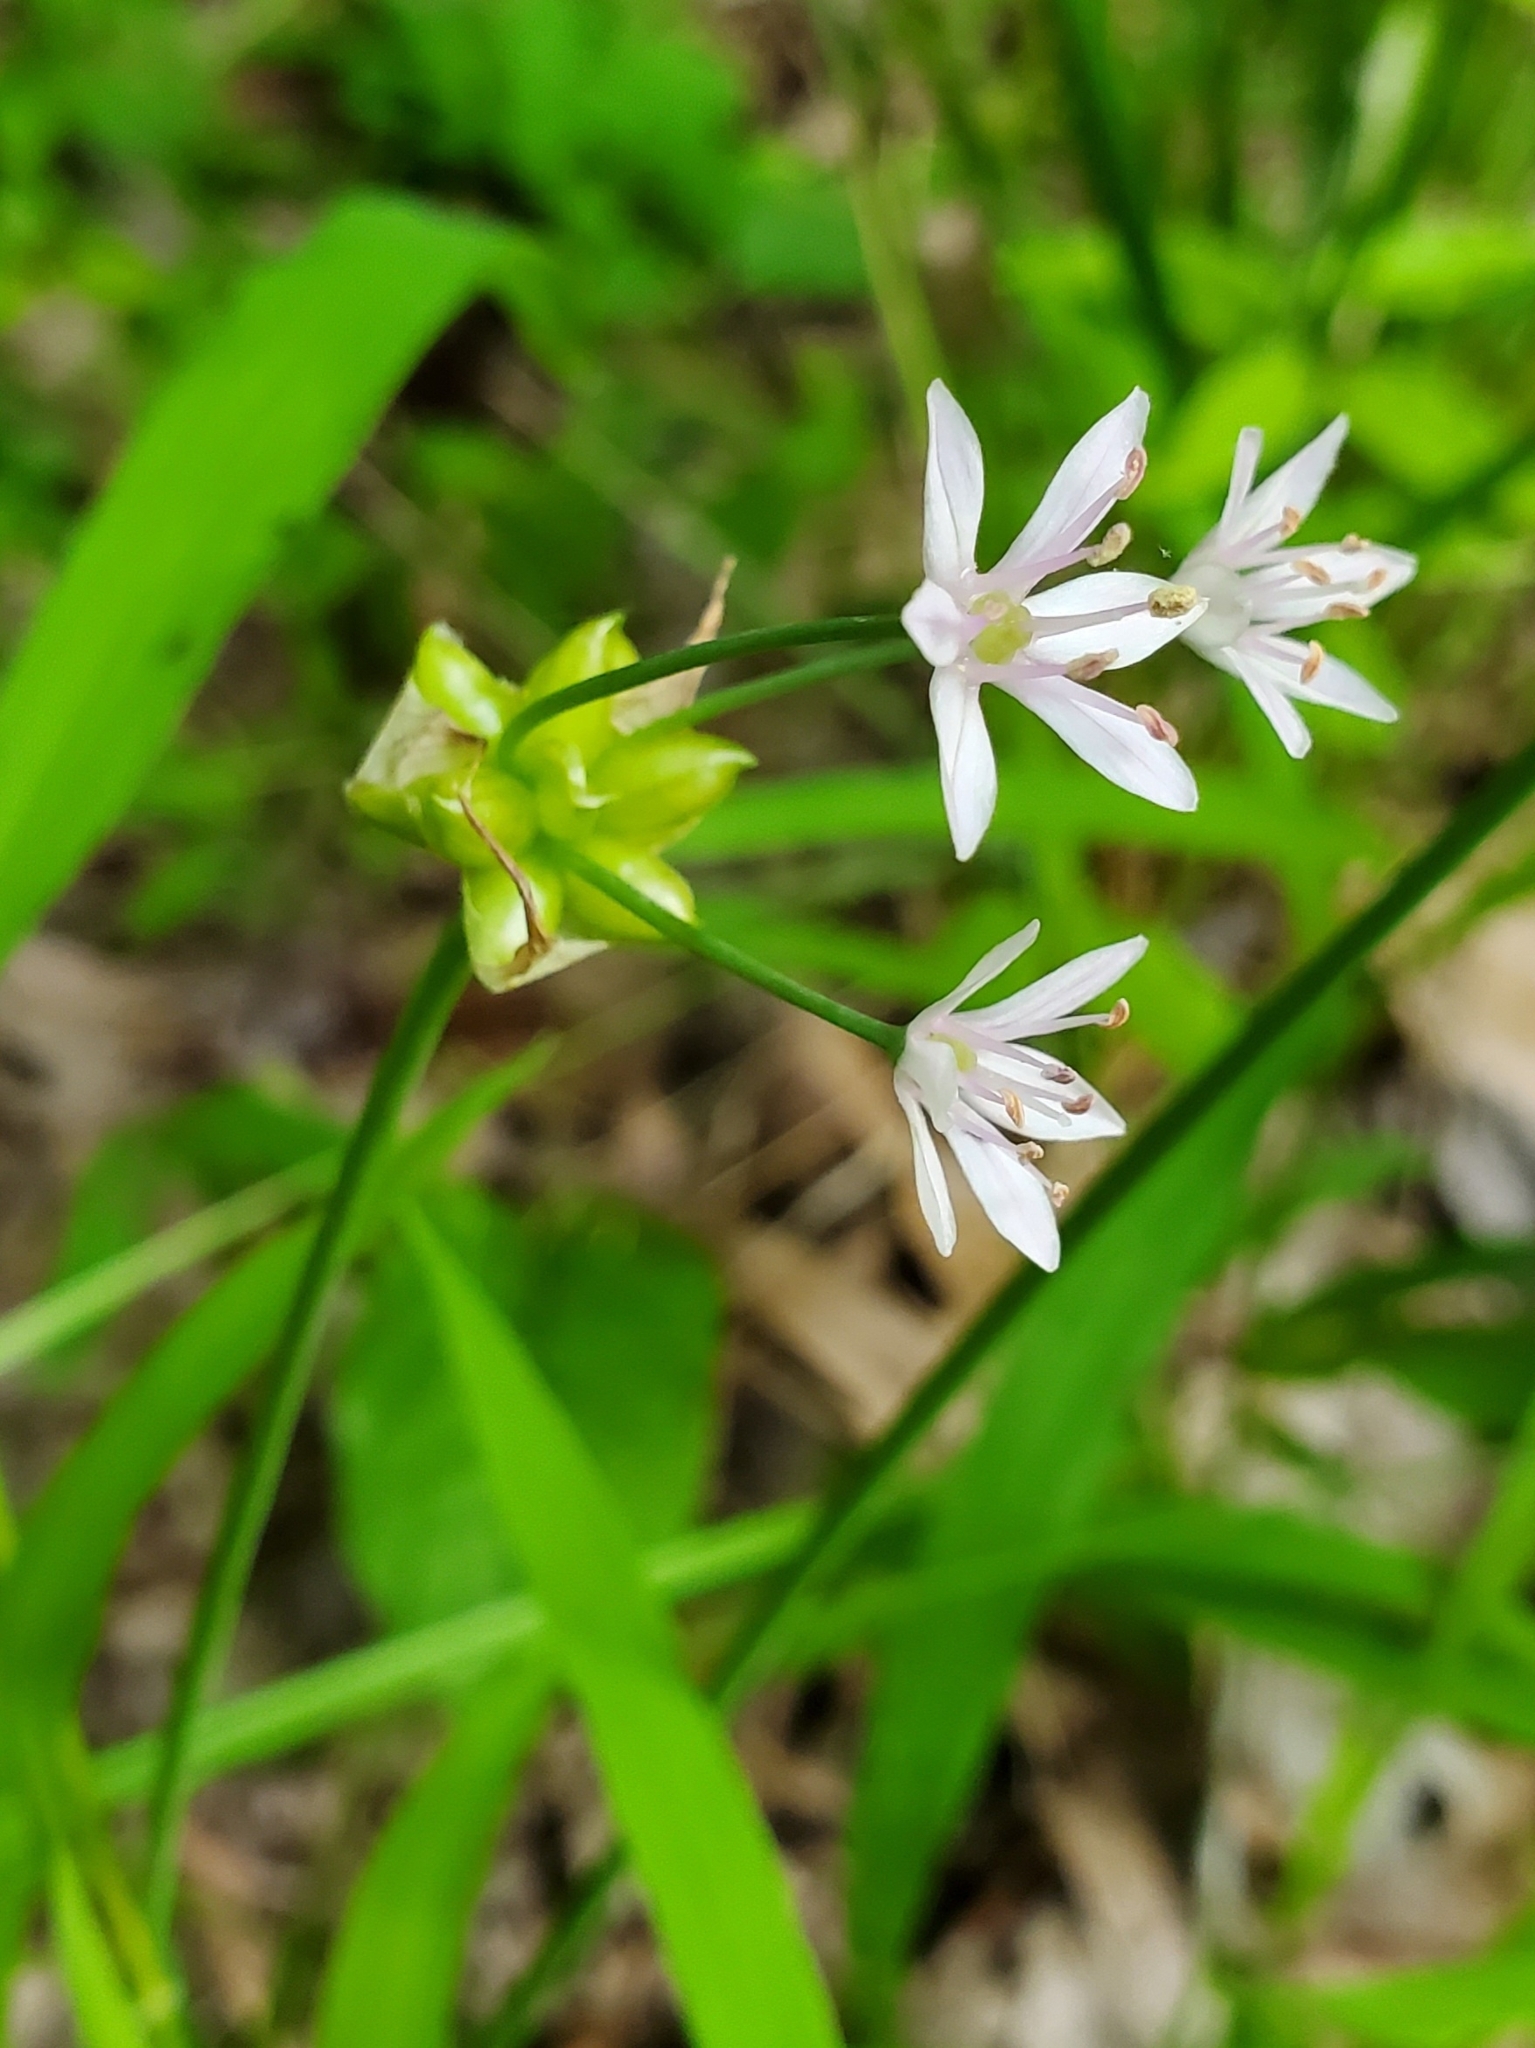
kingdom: Plantae
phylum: Tracheophyta
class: Liliopsida
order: Asparagales
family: Amaryllidaceae
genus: Allium
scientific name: Allium canadense
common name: Meadow garlic
